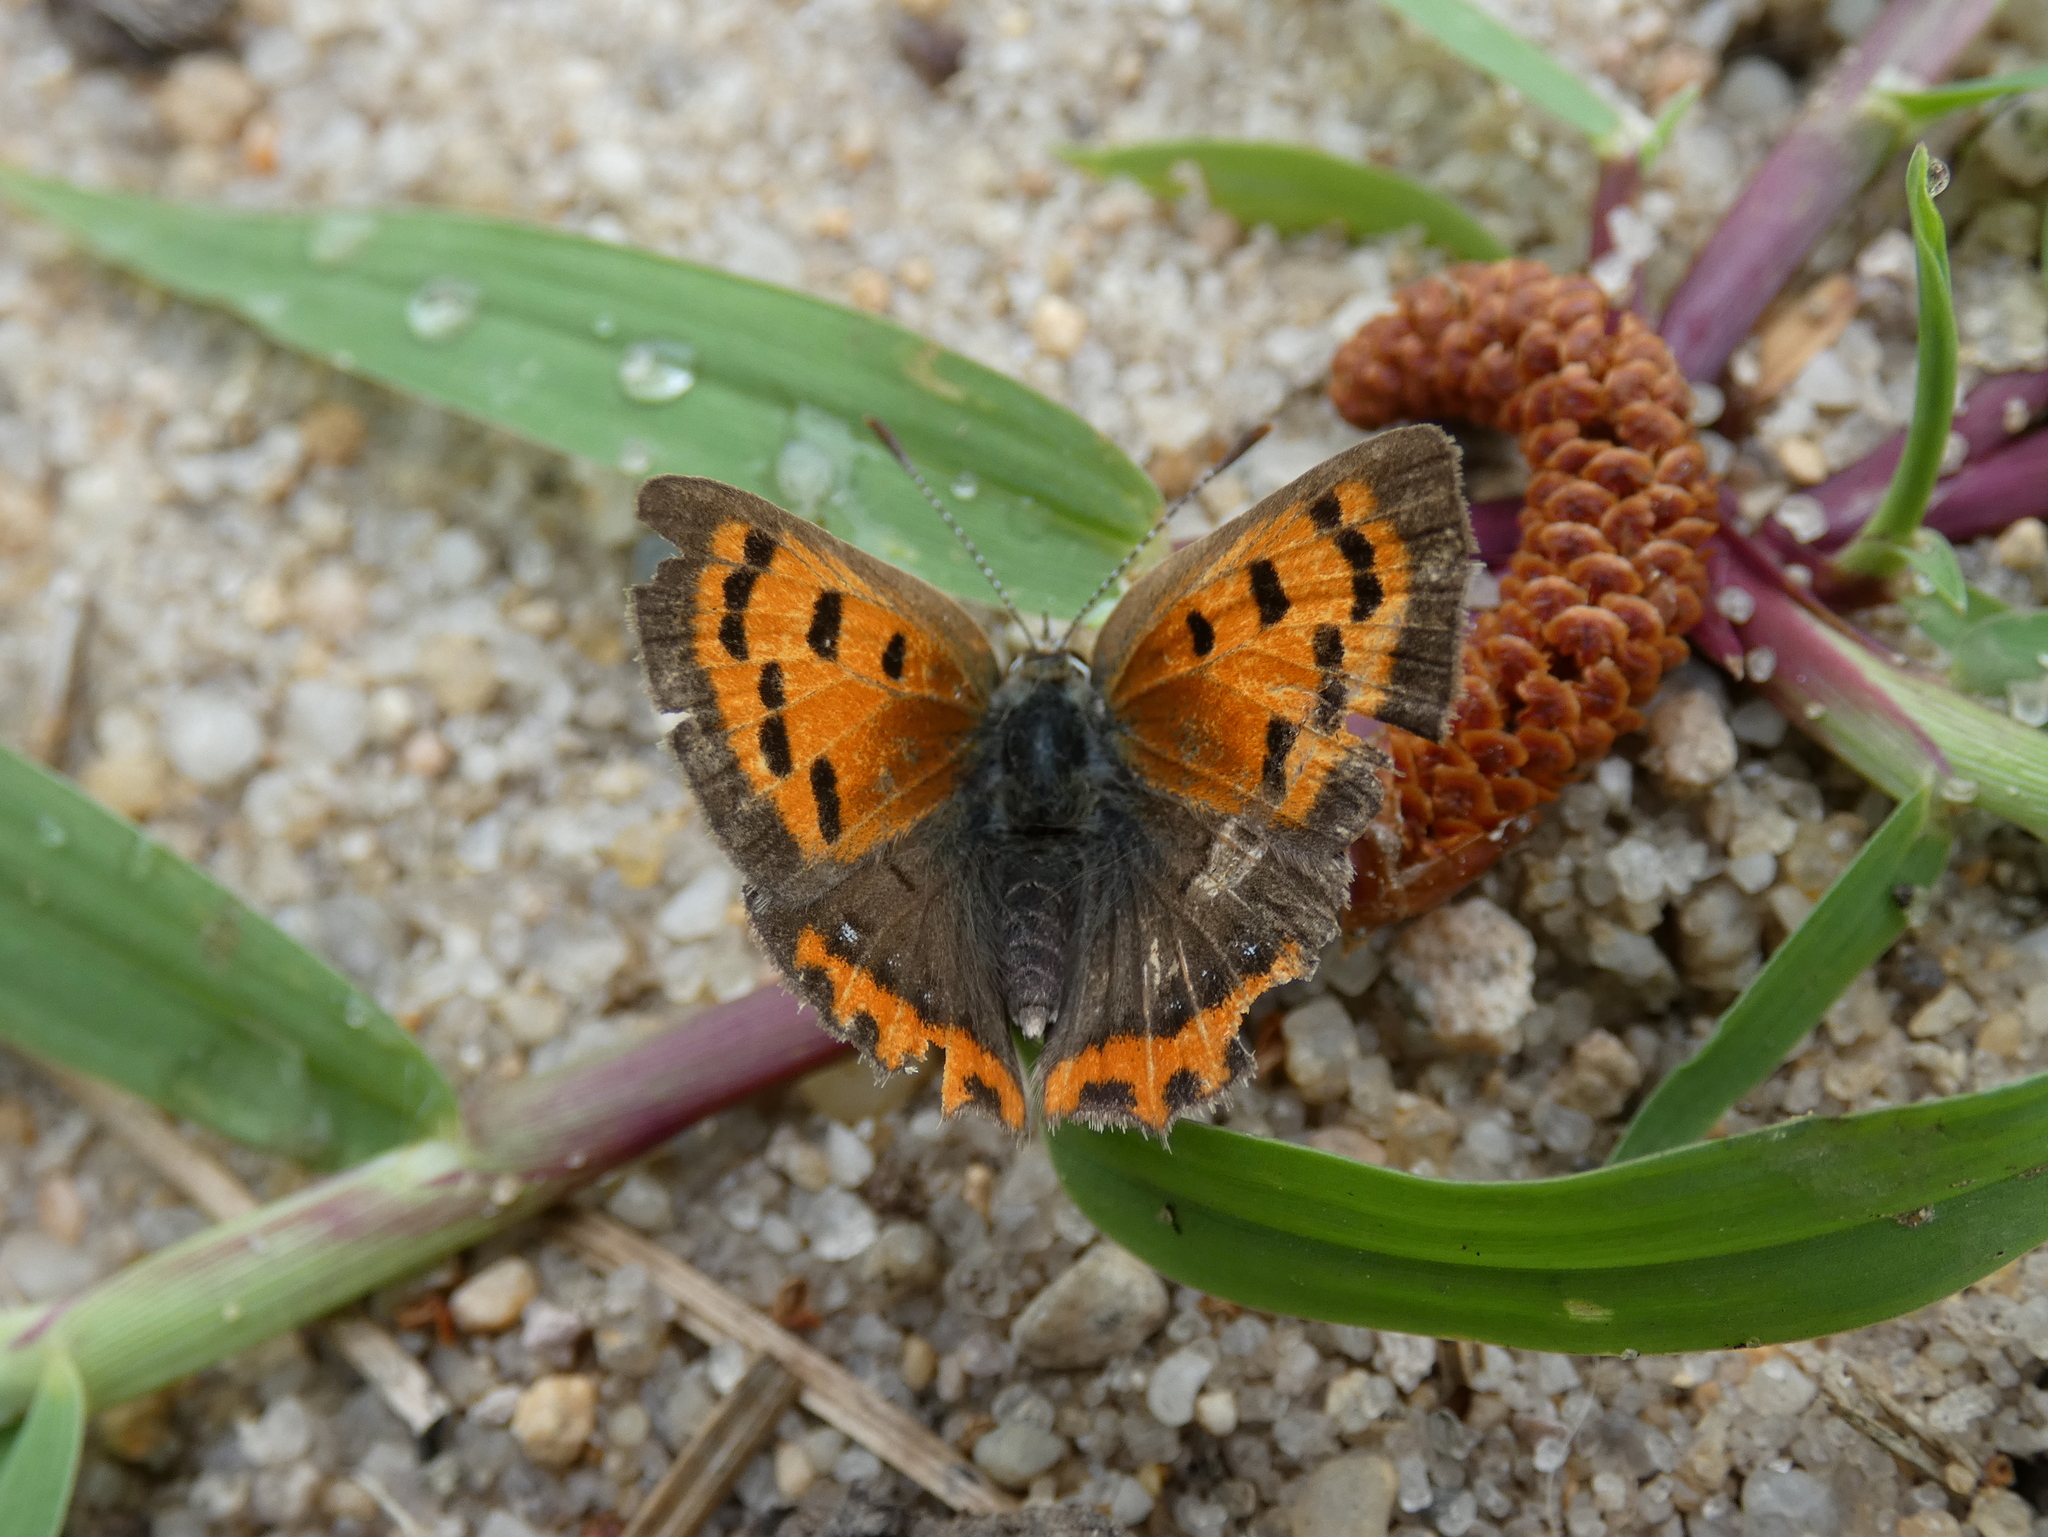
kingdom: Animalia
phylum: Arthropoda
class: Insecta
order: Lepidoptera
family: Lycaenidae
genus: Lycaena
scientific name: Lycaena hypophlaeas
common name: American copper
